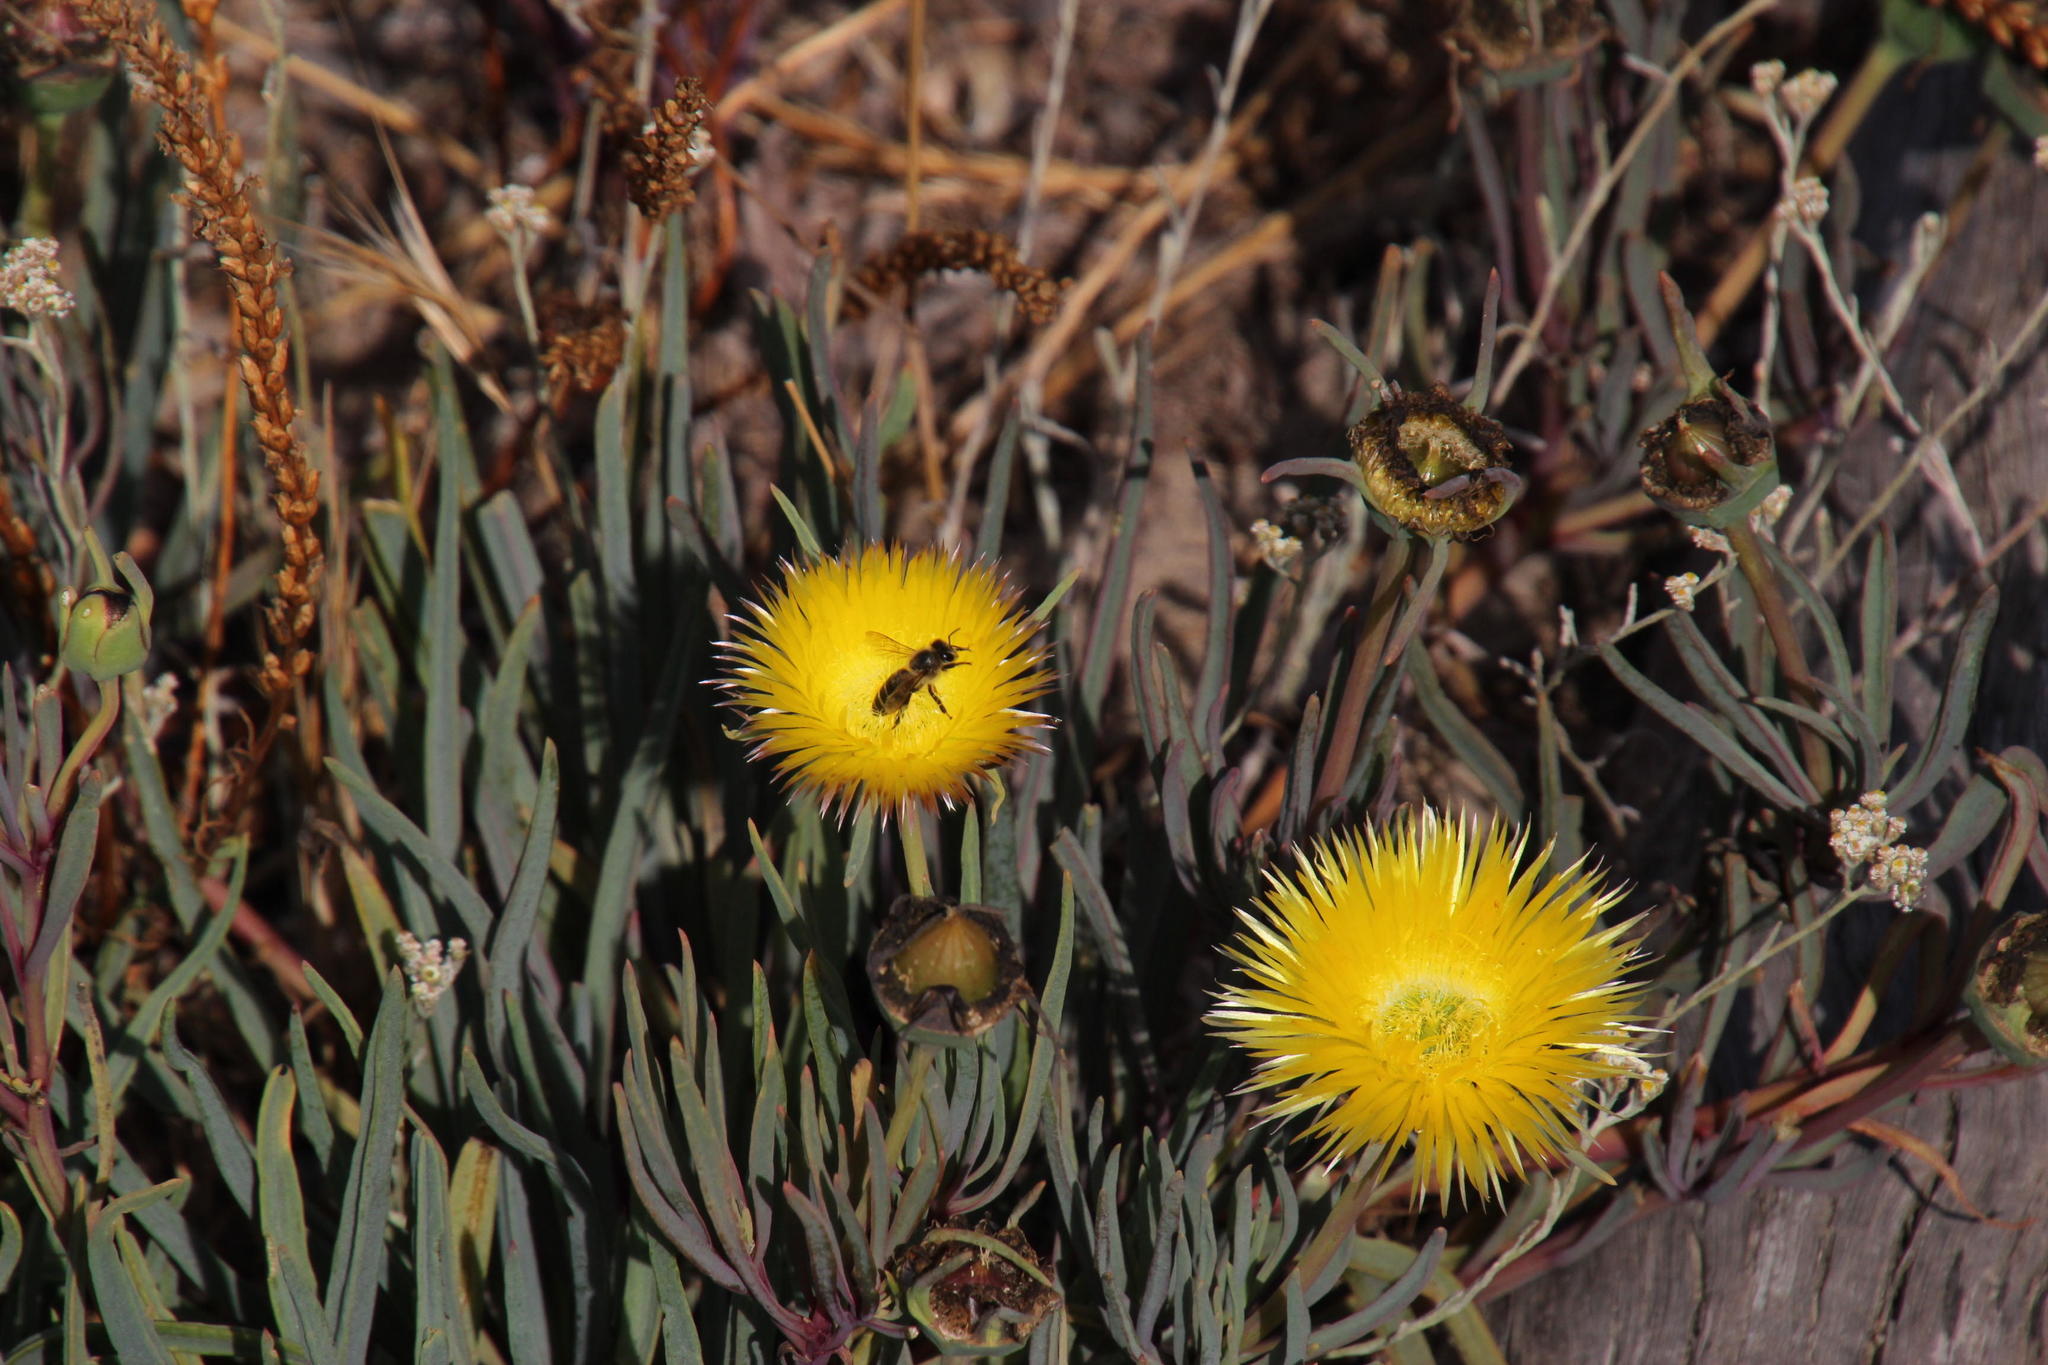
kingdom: Plantae
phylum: Tracheophyta
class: Magnoliopsida
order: Caryophyllales
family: Aizoaceae
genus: Conicosia
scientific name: Conicosia pugioniformis
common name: Narrow-leaved iceplant
